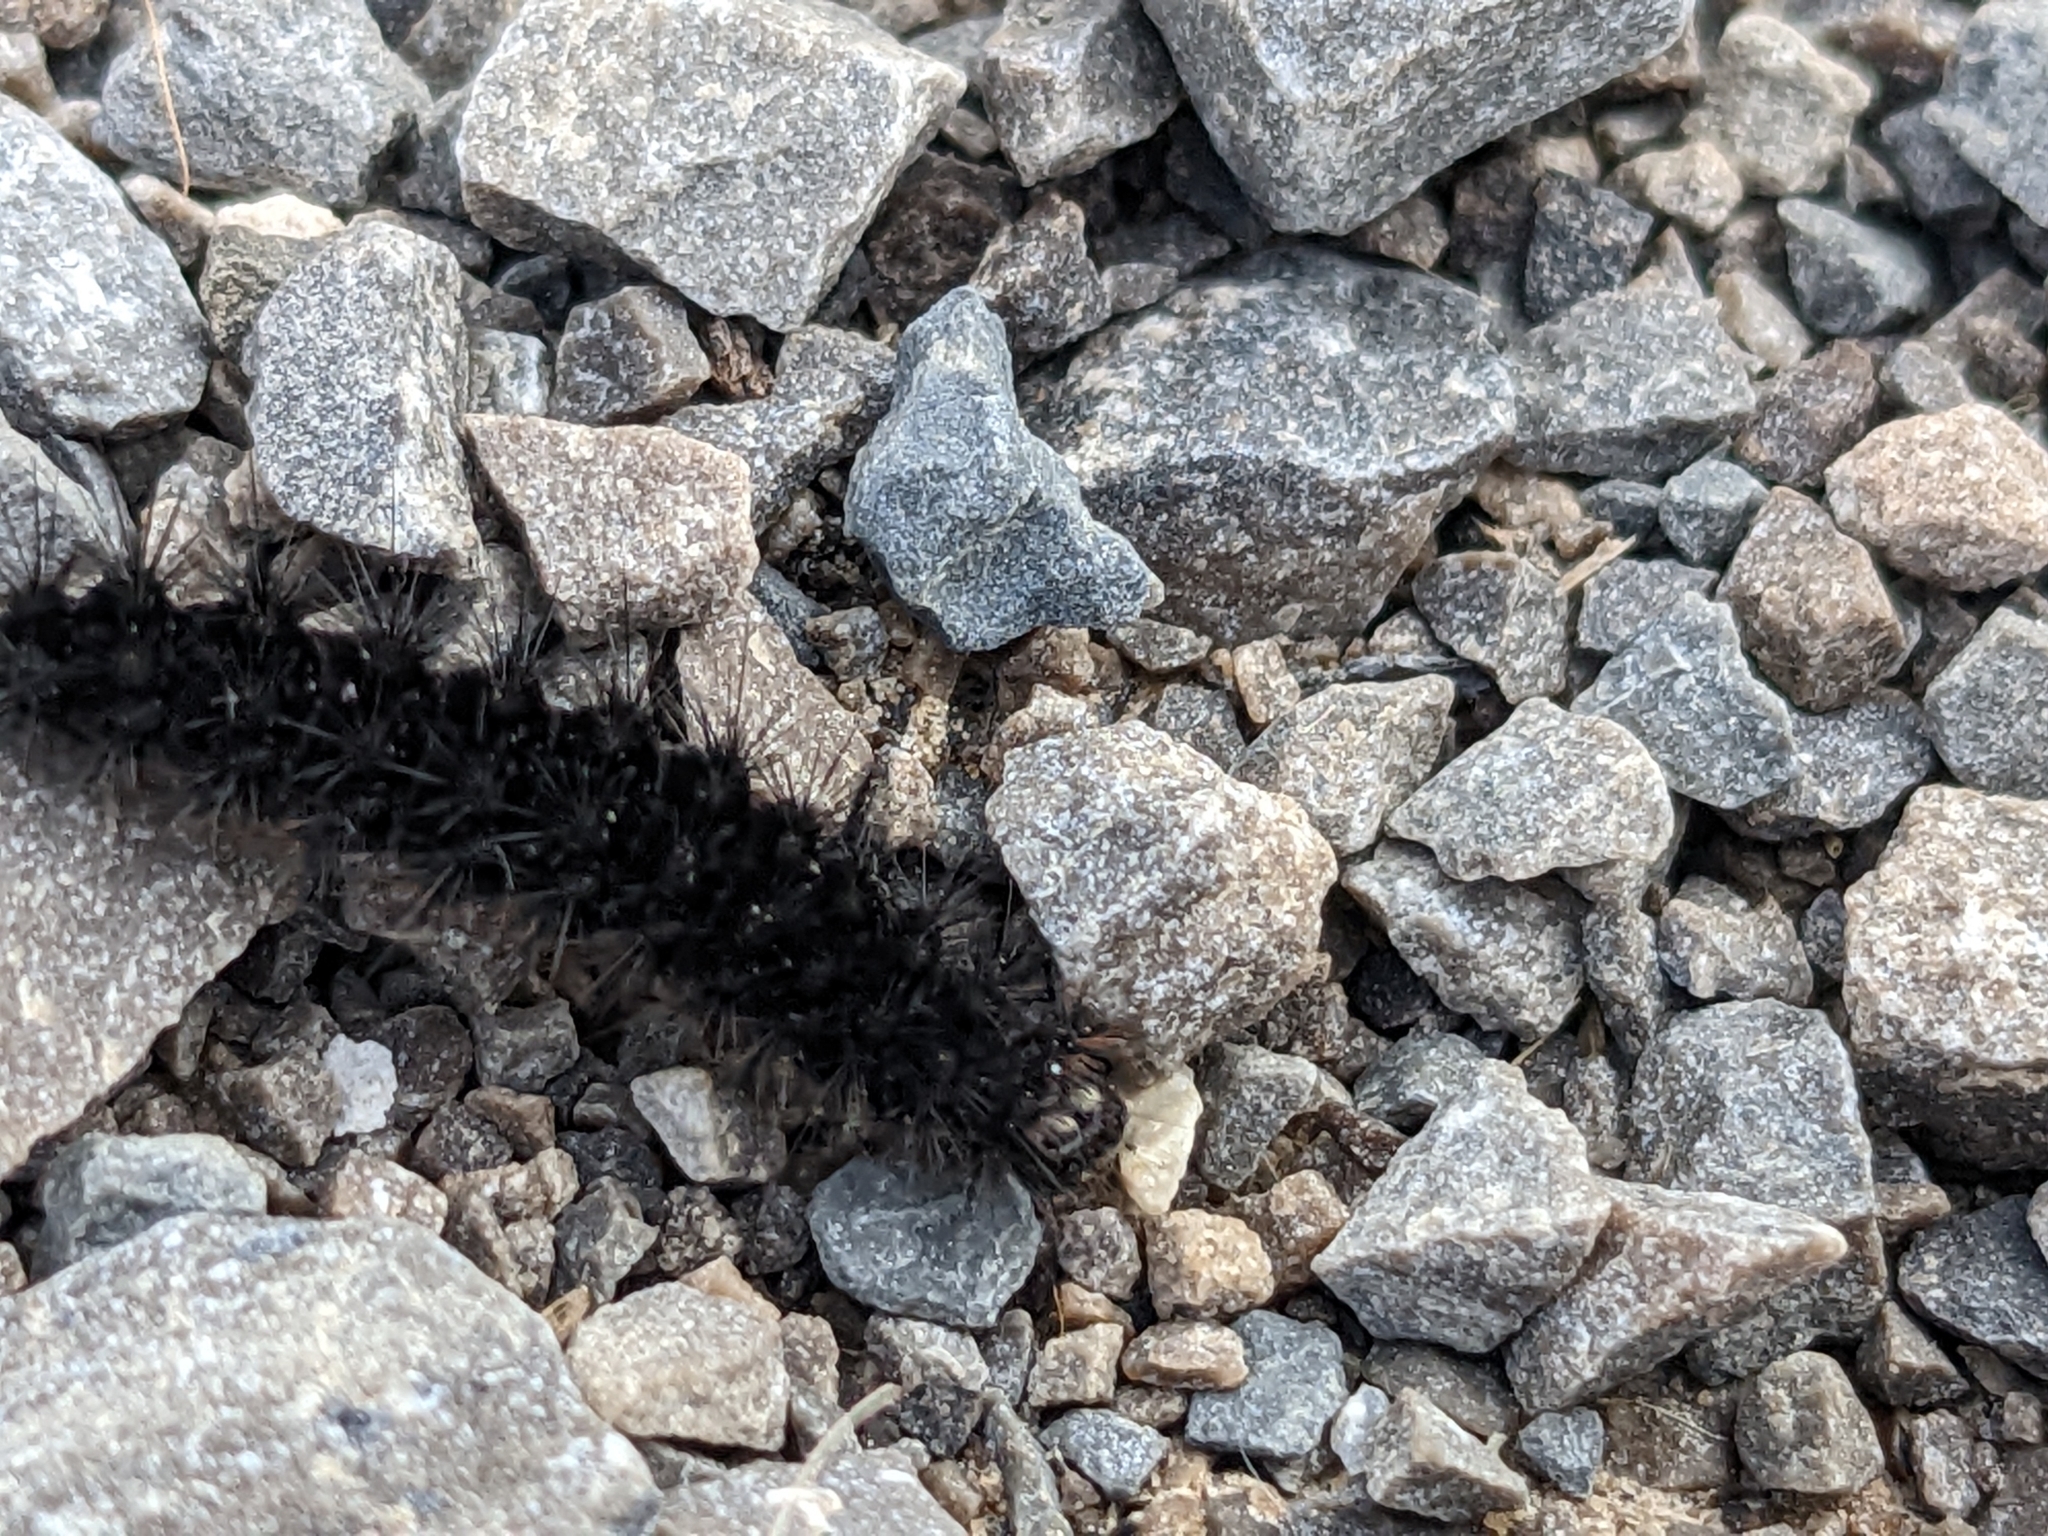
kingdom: Animalia
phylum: Arthropoda
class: Insecta
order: Lepidoptera
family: Erebidae
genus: Hypercompe
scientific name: Hypercompe scribonia
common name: Giant leopard moth
